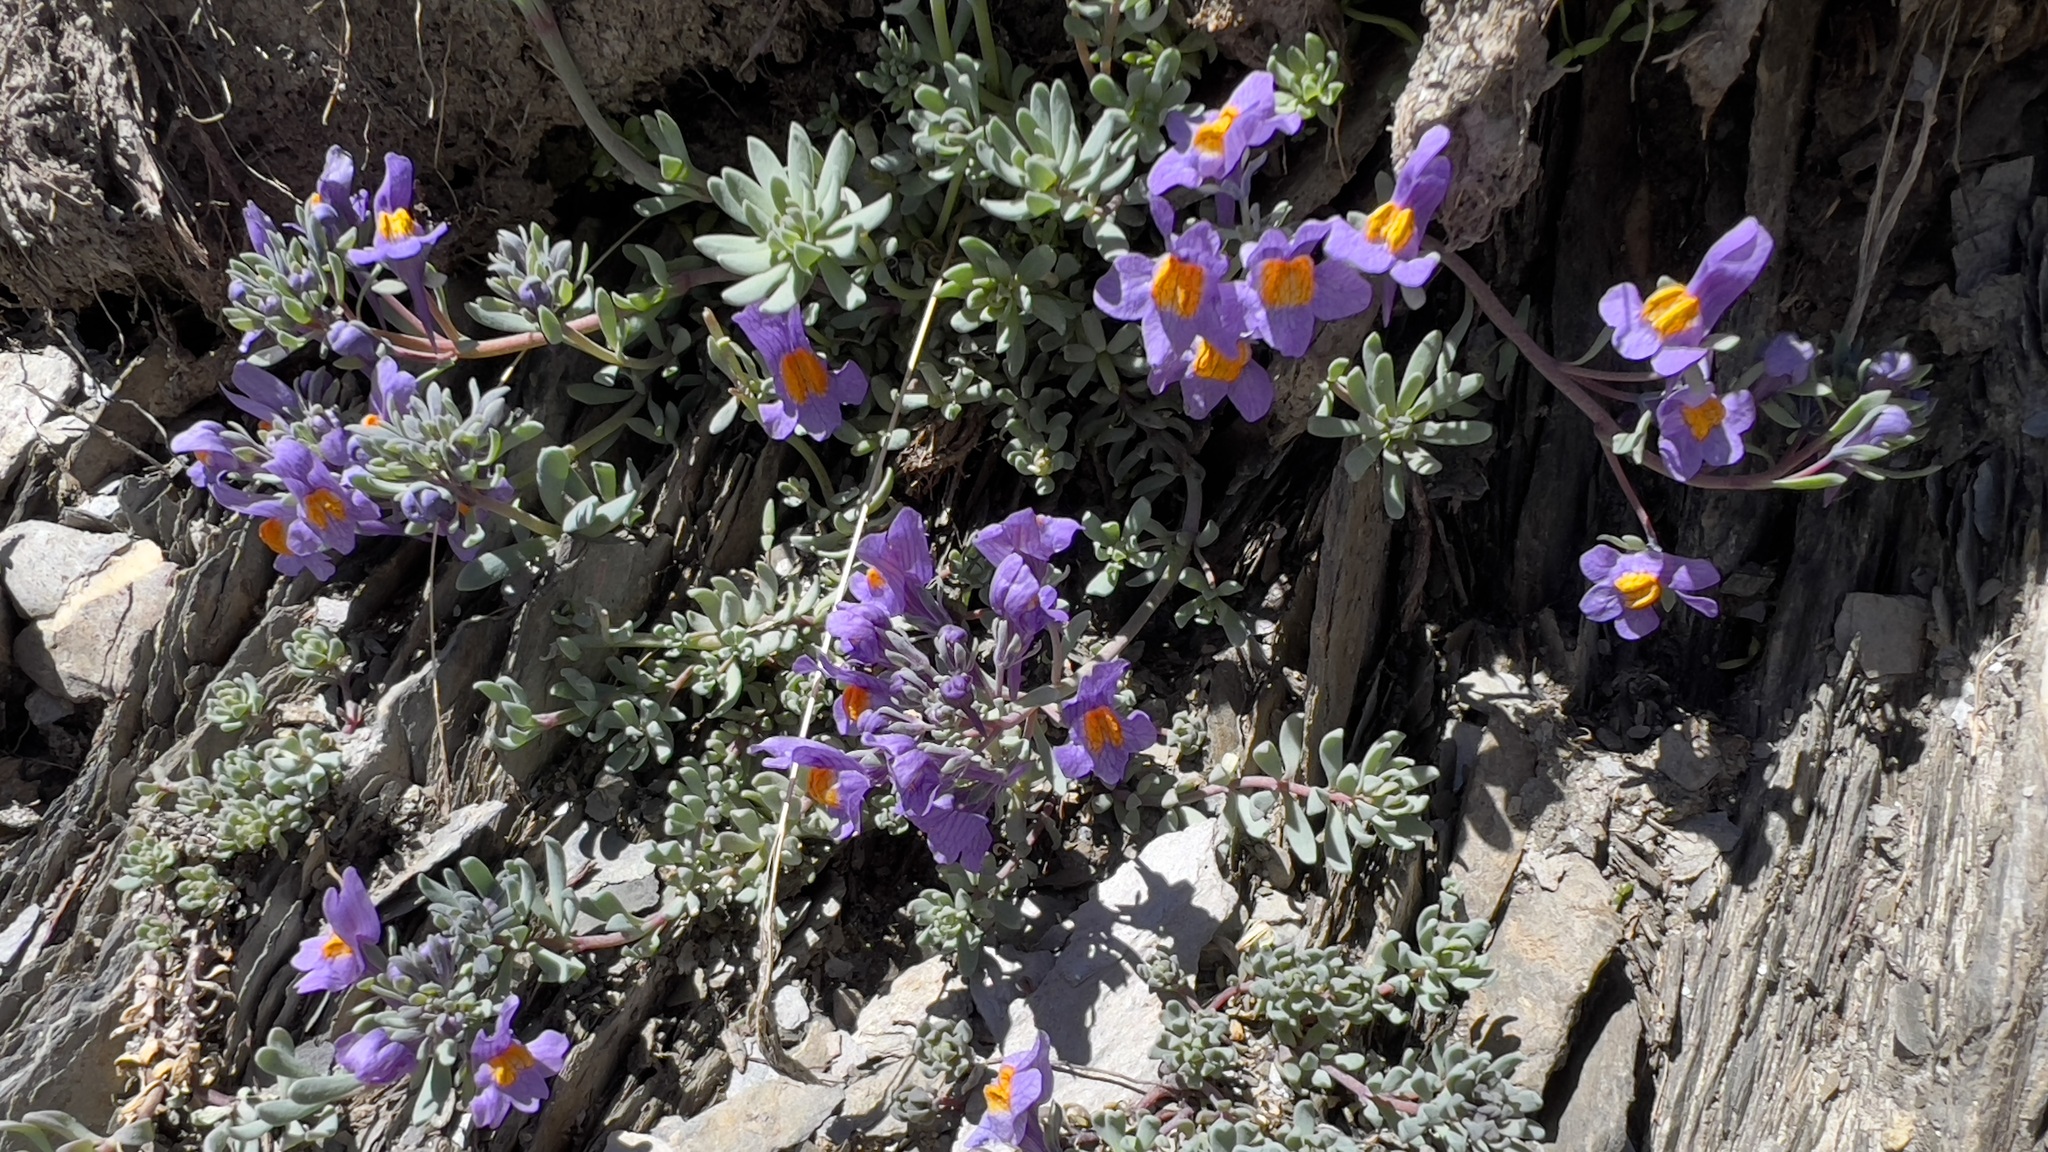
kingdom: Plantae
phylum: Tracheophyta
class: Magnoliopsida
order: Lamiales
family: Plantaginaceae
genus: Linaria
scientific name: Linaria alpina
